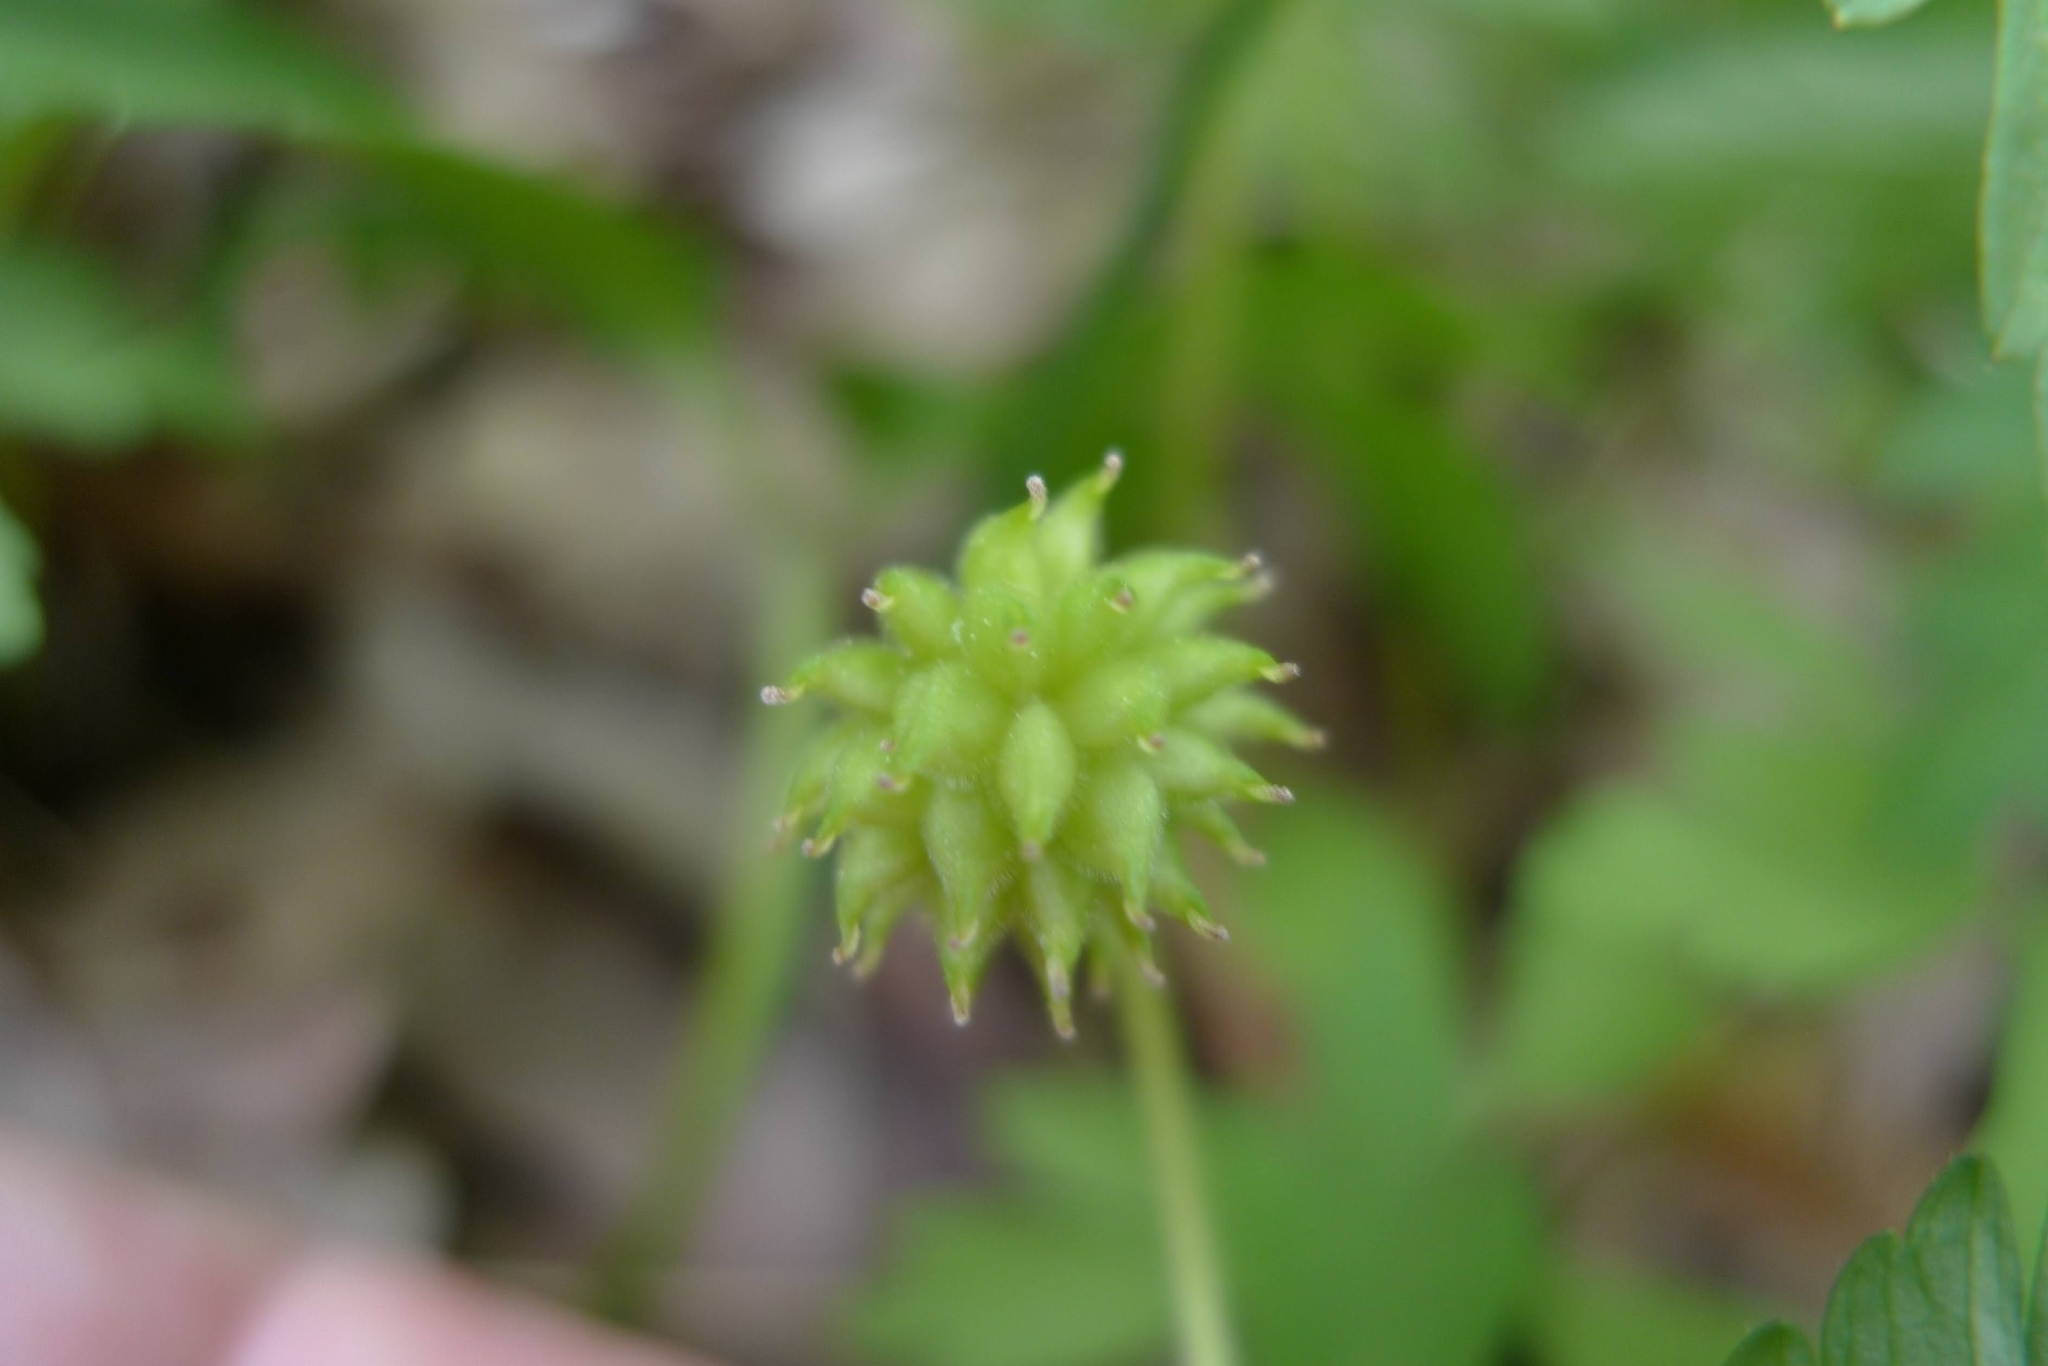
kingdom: Plantae
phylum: Tracheophyta
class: Magnoliopsida
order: Ranunculales
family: Ranunculaceae
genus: Anemone
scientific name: Anemone nemorosa
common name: Wood anemone
